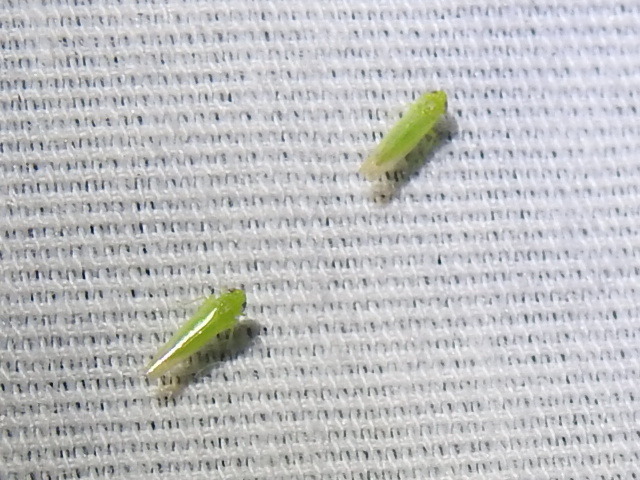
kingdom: Animalia
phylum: Arthropoda
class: Insecta
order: Hemiptera
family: Cicadellidae
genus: Empoasca
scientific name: Empoasca fabae
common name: Potato leafhopper
